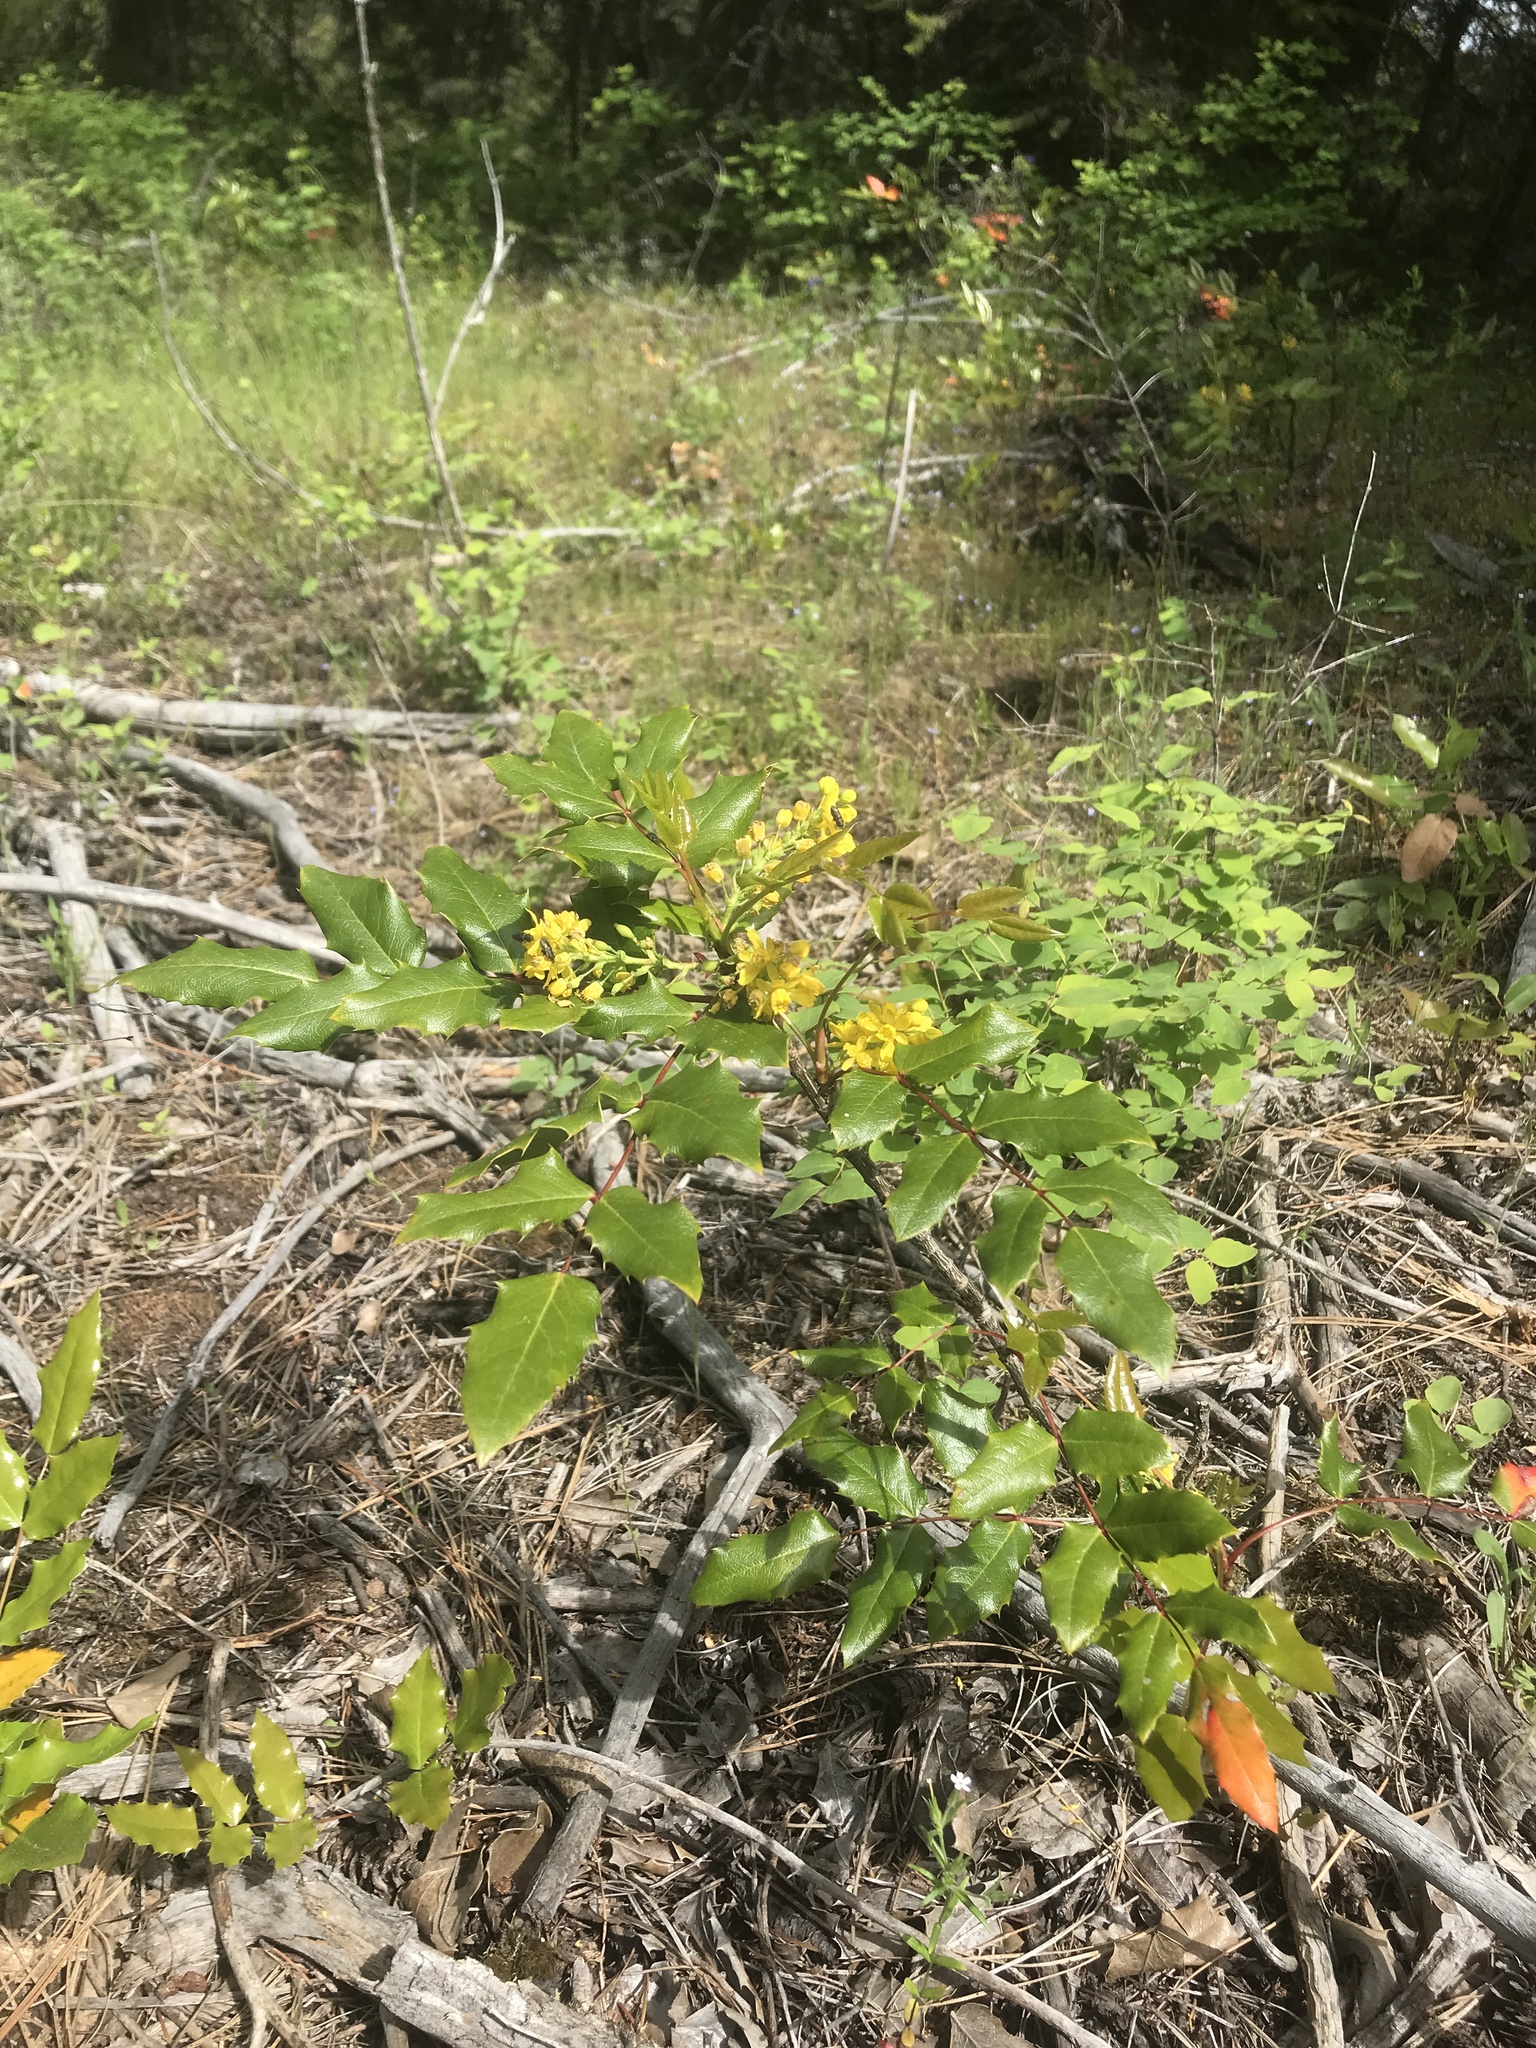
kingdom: Plantae
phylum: Tracheophyta
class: Magnoliopsida
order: Ranunculales
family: Berberidaceae
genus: Mahonia
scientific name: Mahonia aquifolium
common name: Oregon-grape
